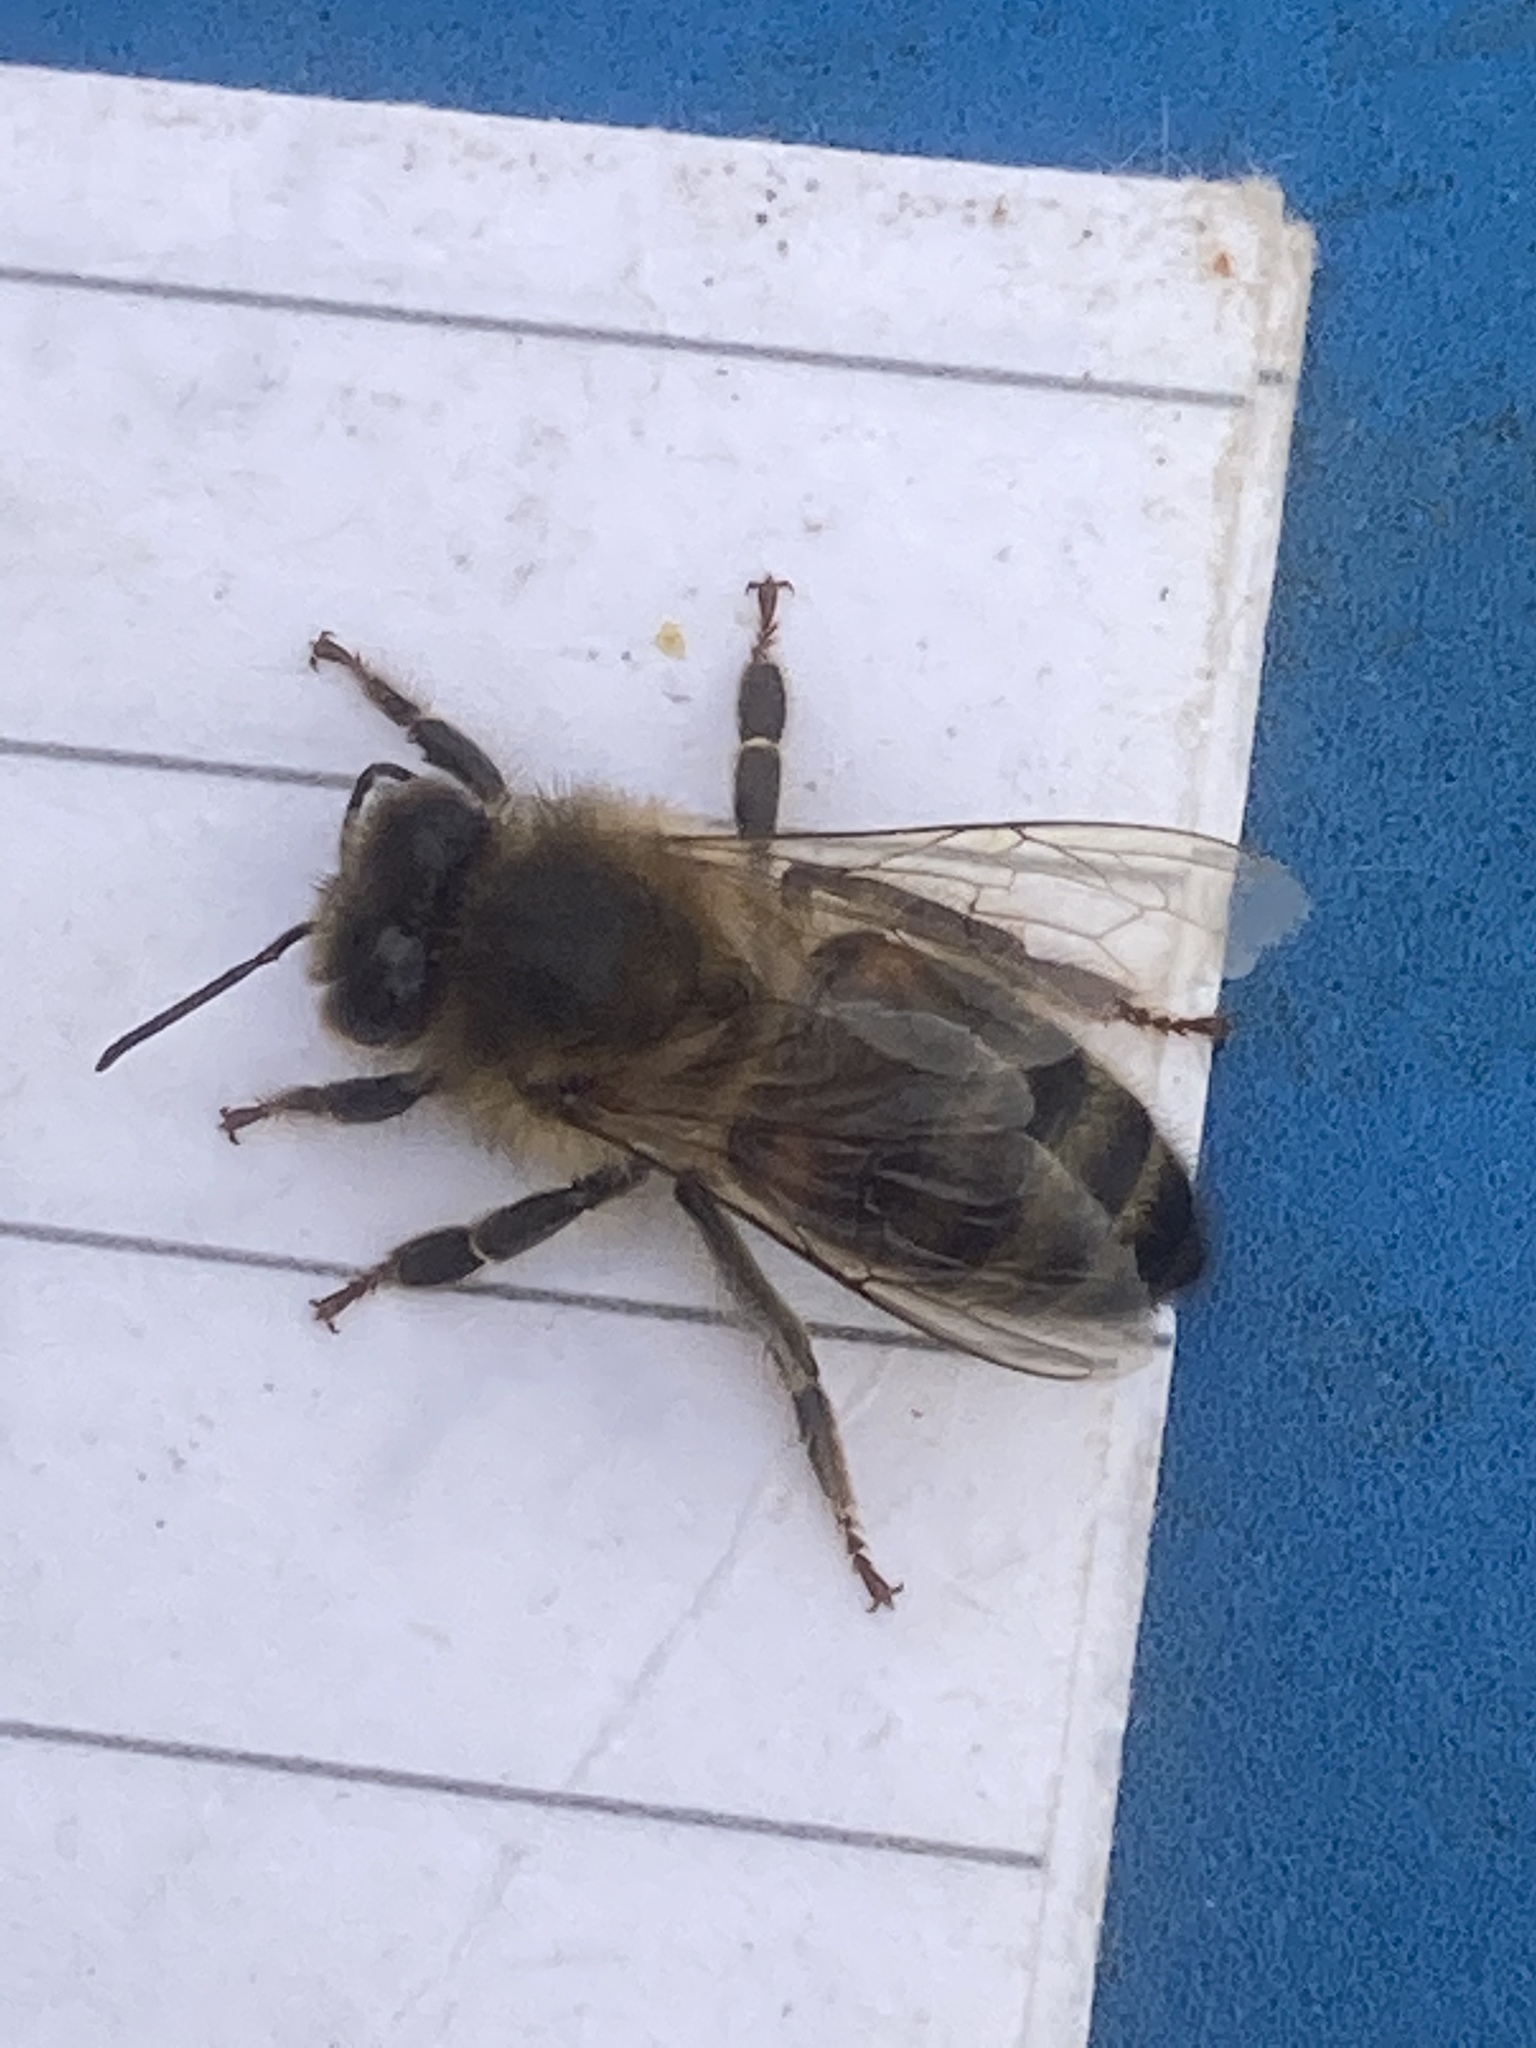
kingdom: Animalia
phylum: Arthropoda
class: Insecta
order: Hymenoptera
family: Apidae
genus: Apis
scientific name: Apis mellifera
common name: Honey bee
